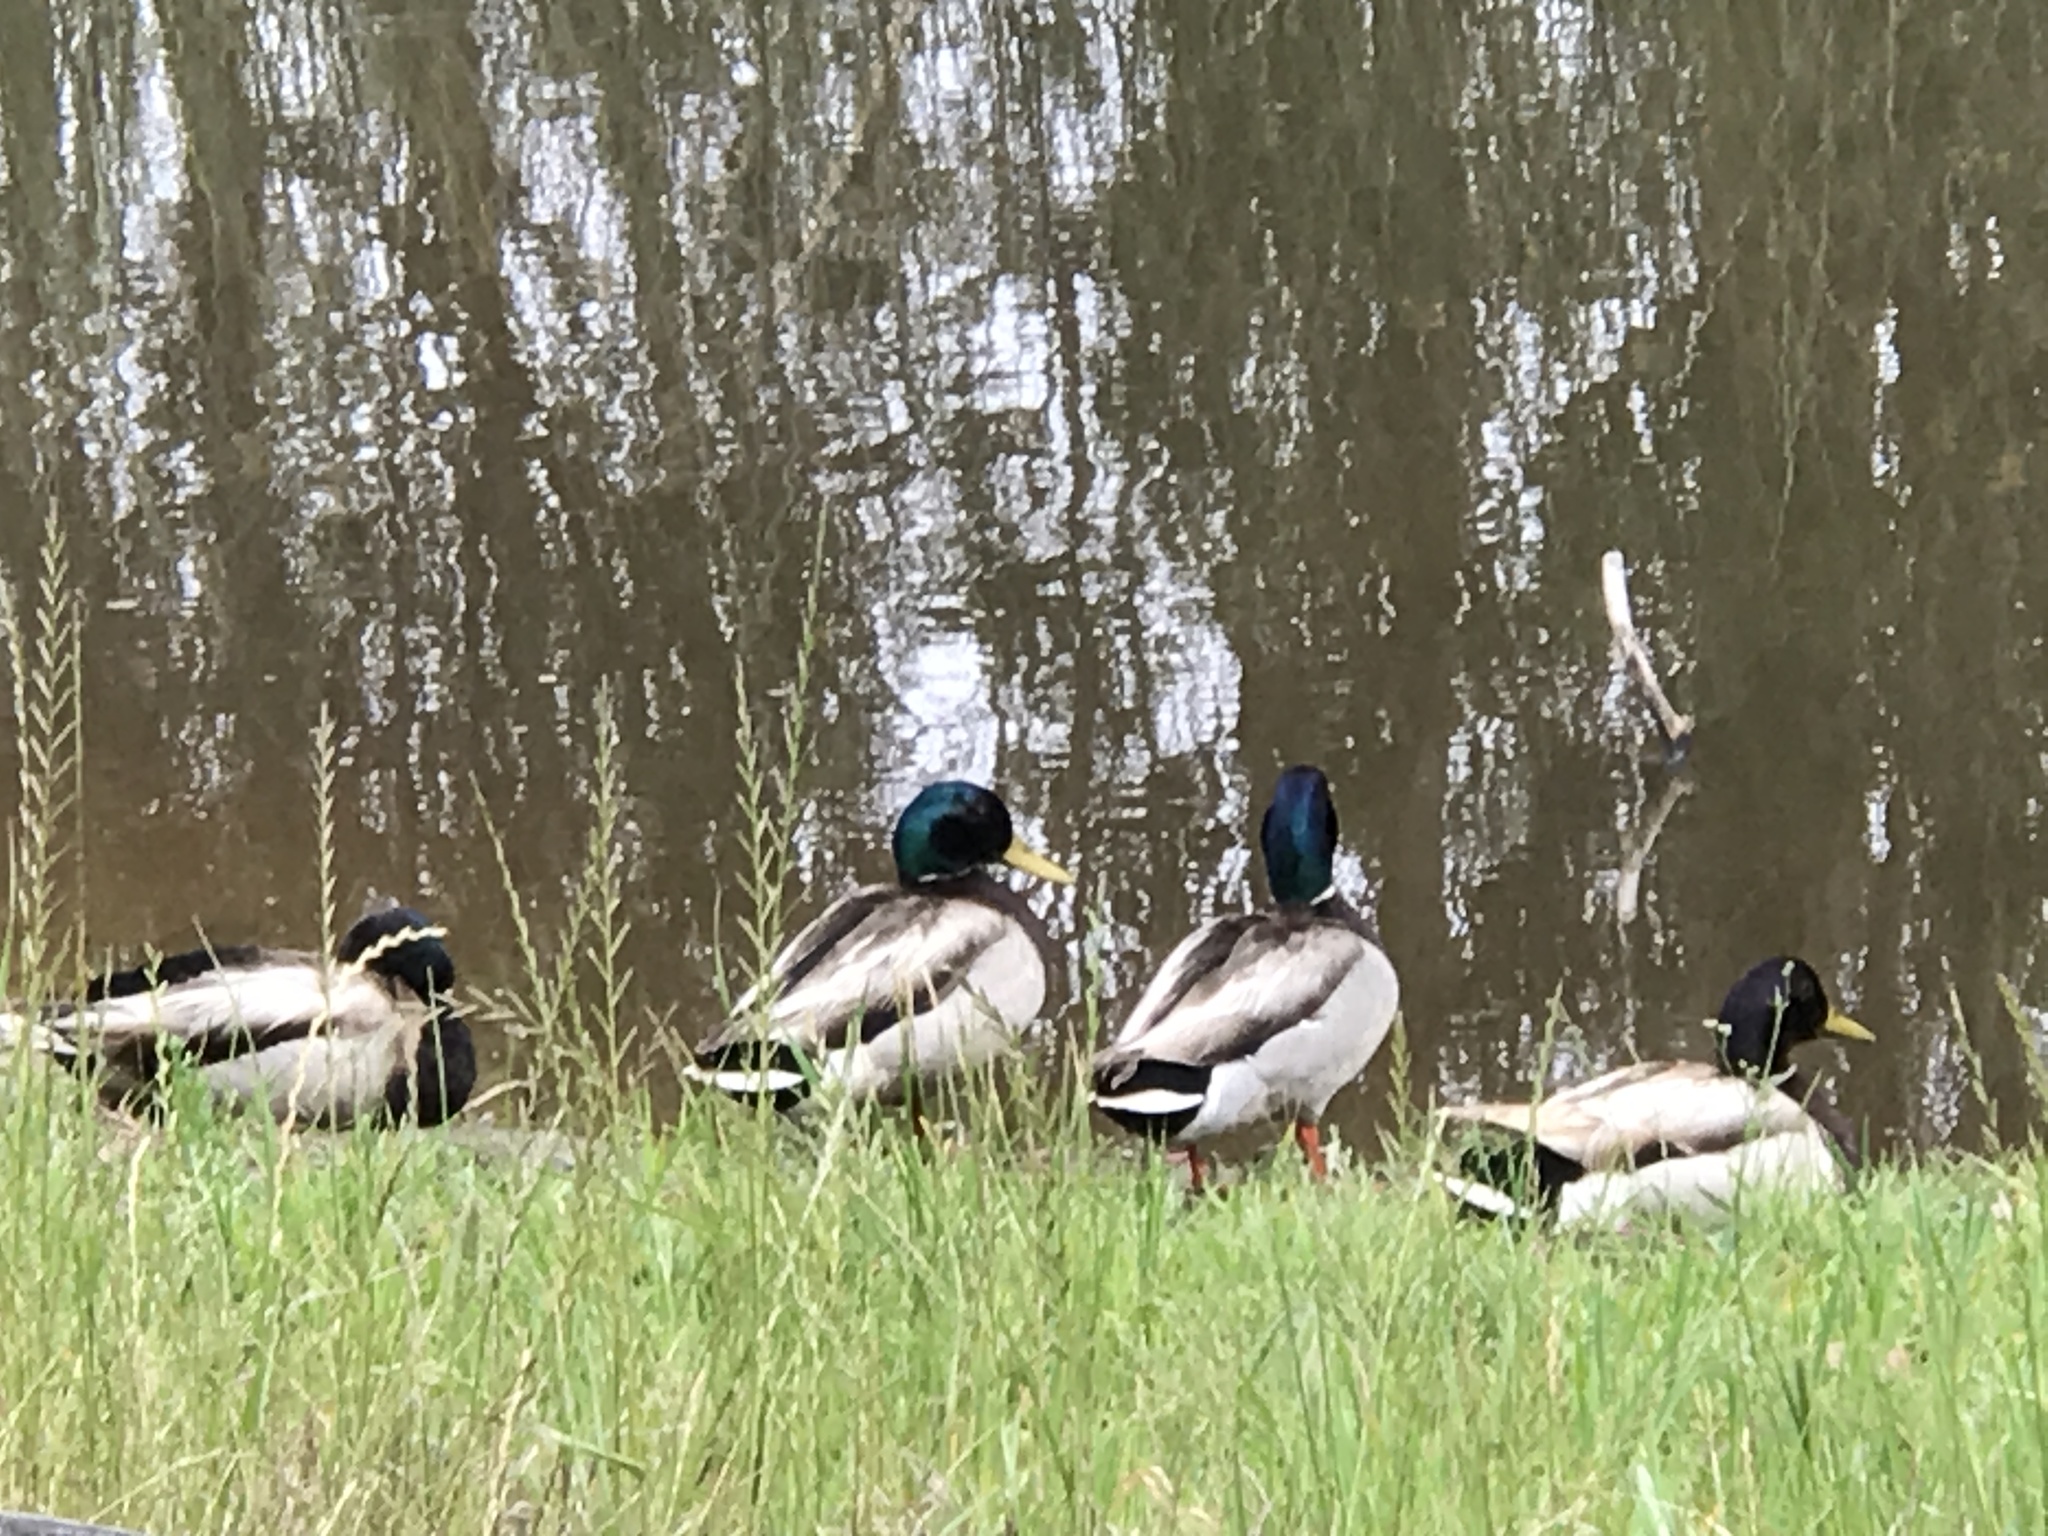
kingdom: Animalia
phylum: Chordata
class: Aves
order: Anseriformes
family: Anatidae
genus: Anas
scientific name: Anas platyrhynchos
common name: Mallard
